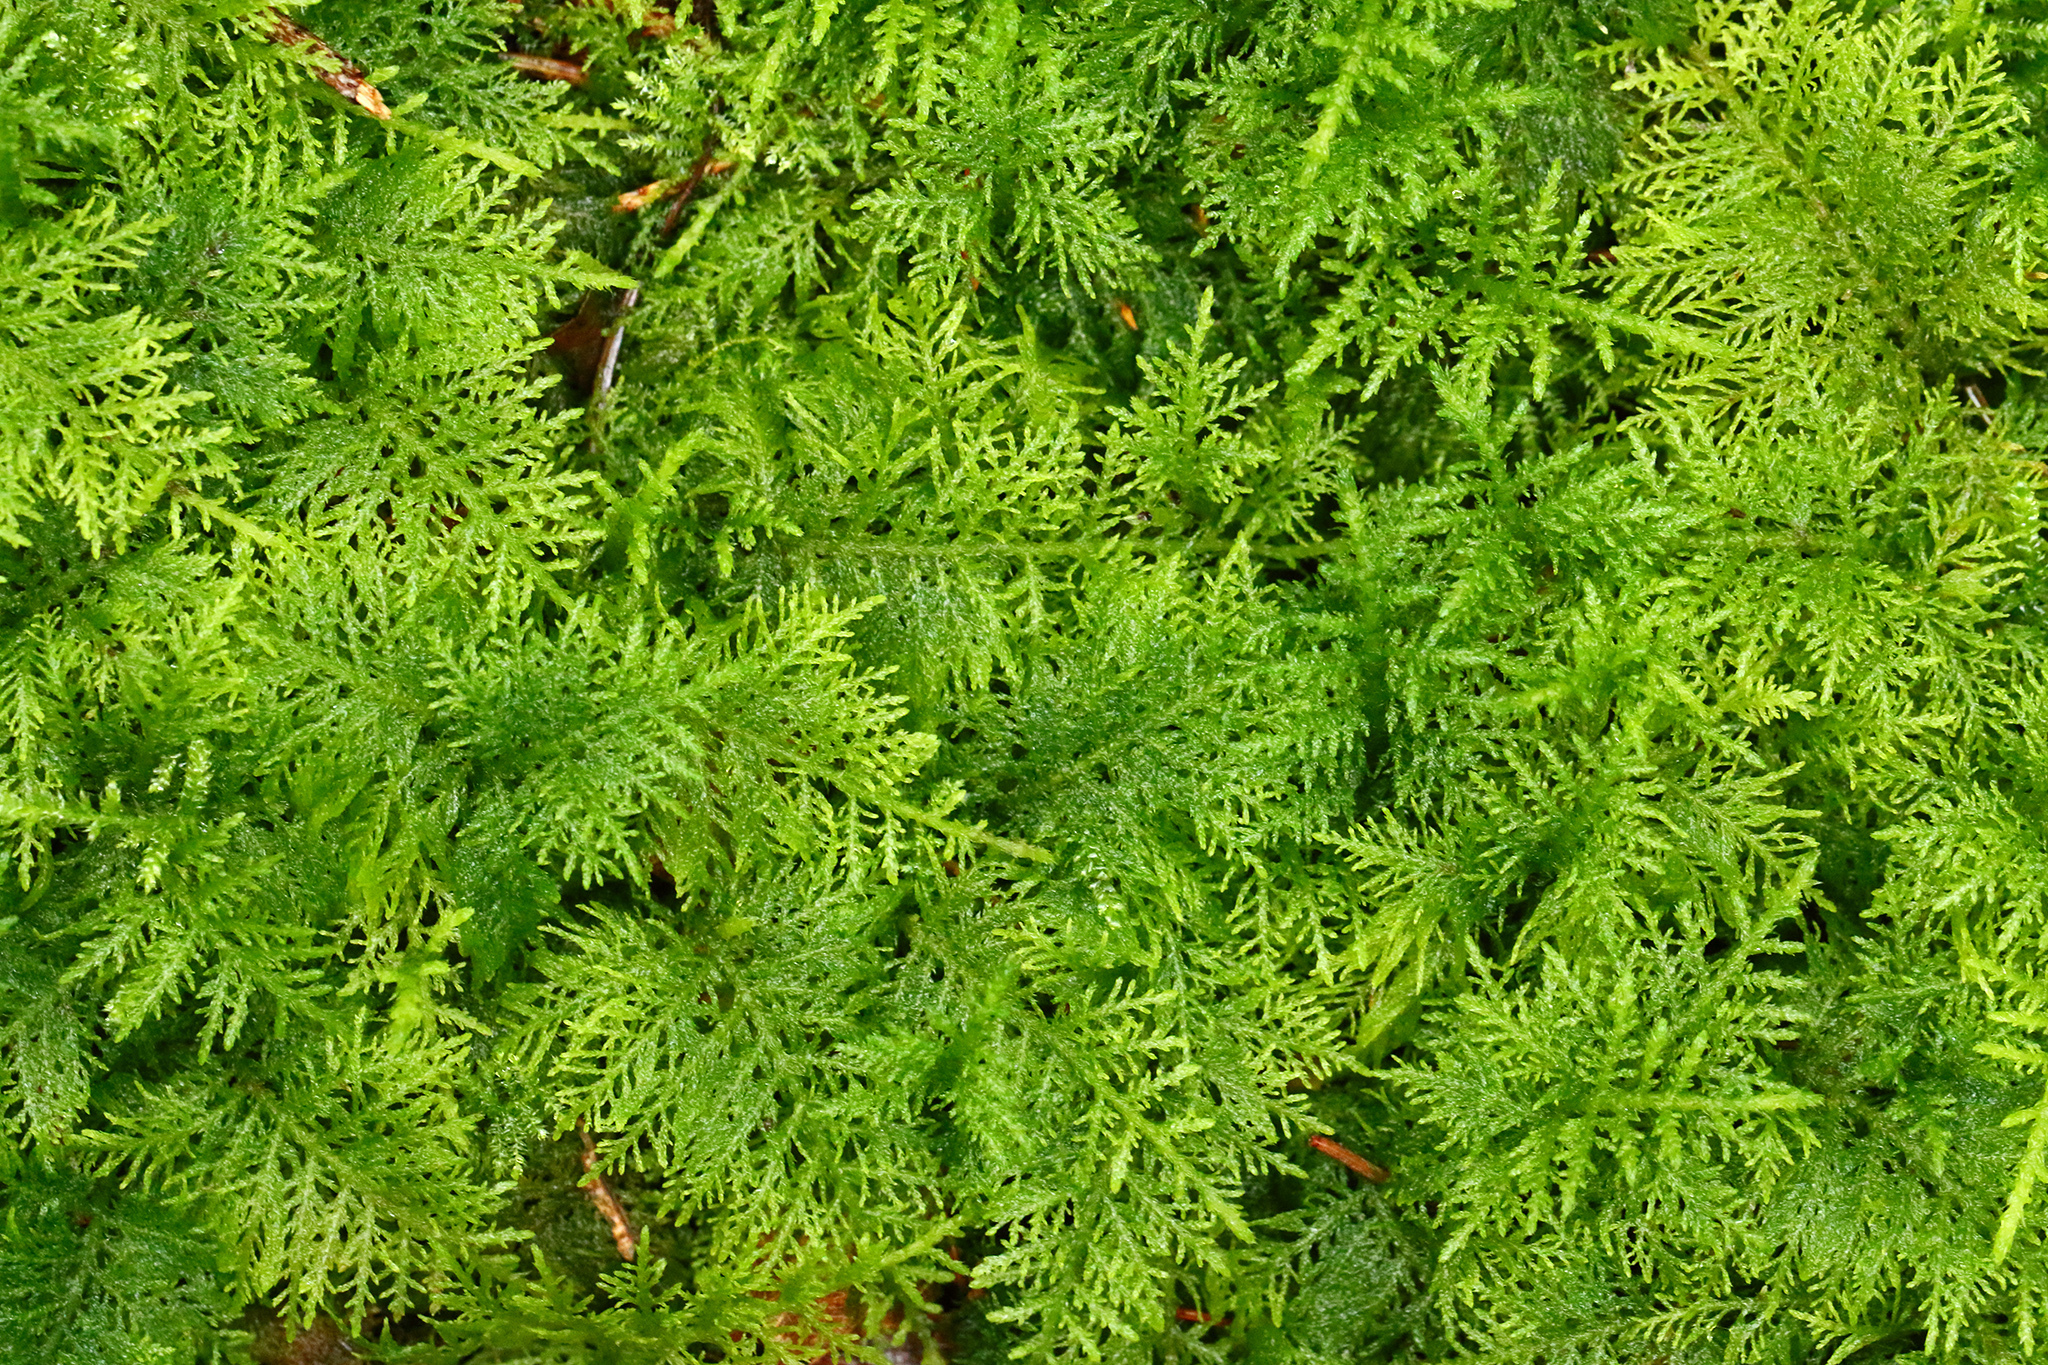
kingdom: Plantae
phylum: Bryophyta
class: Bryopsida
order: Hypnales
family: Thuidiaceae
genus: Thuidium
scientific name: Thuidium tamariscinum
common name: Common tamarisk-moss
